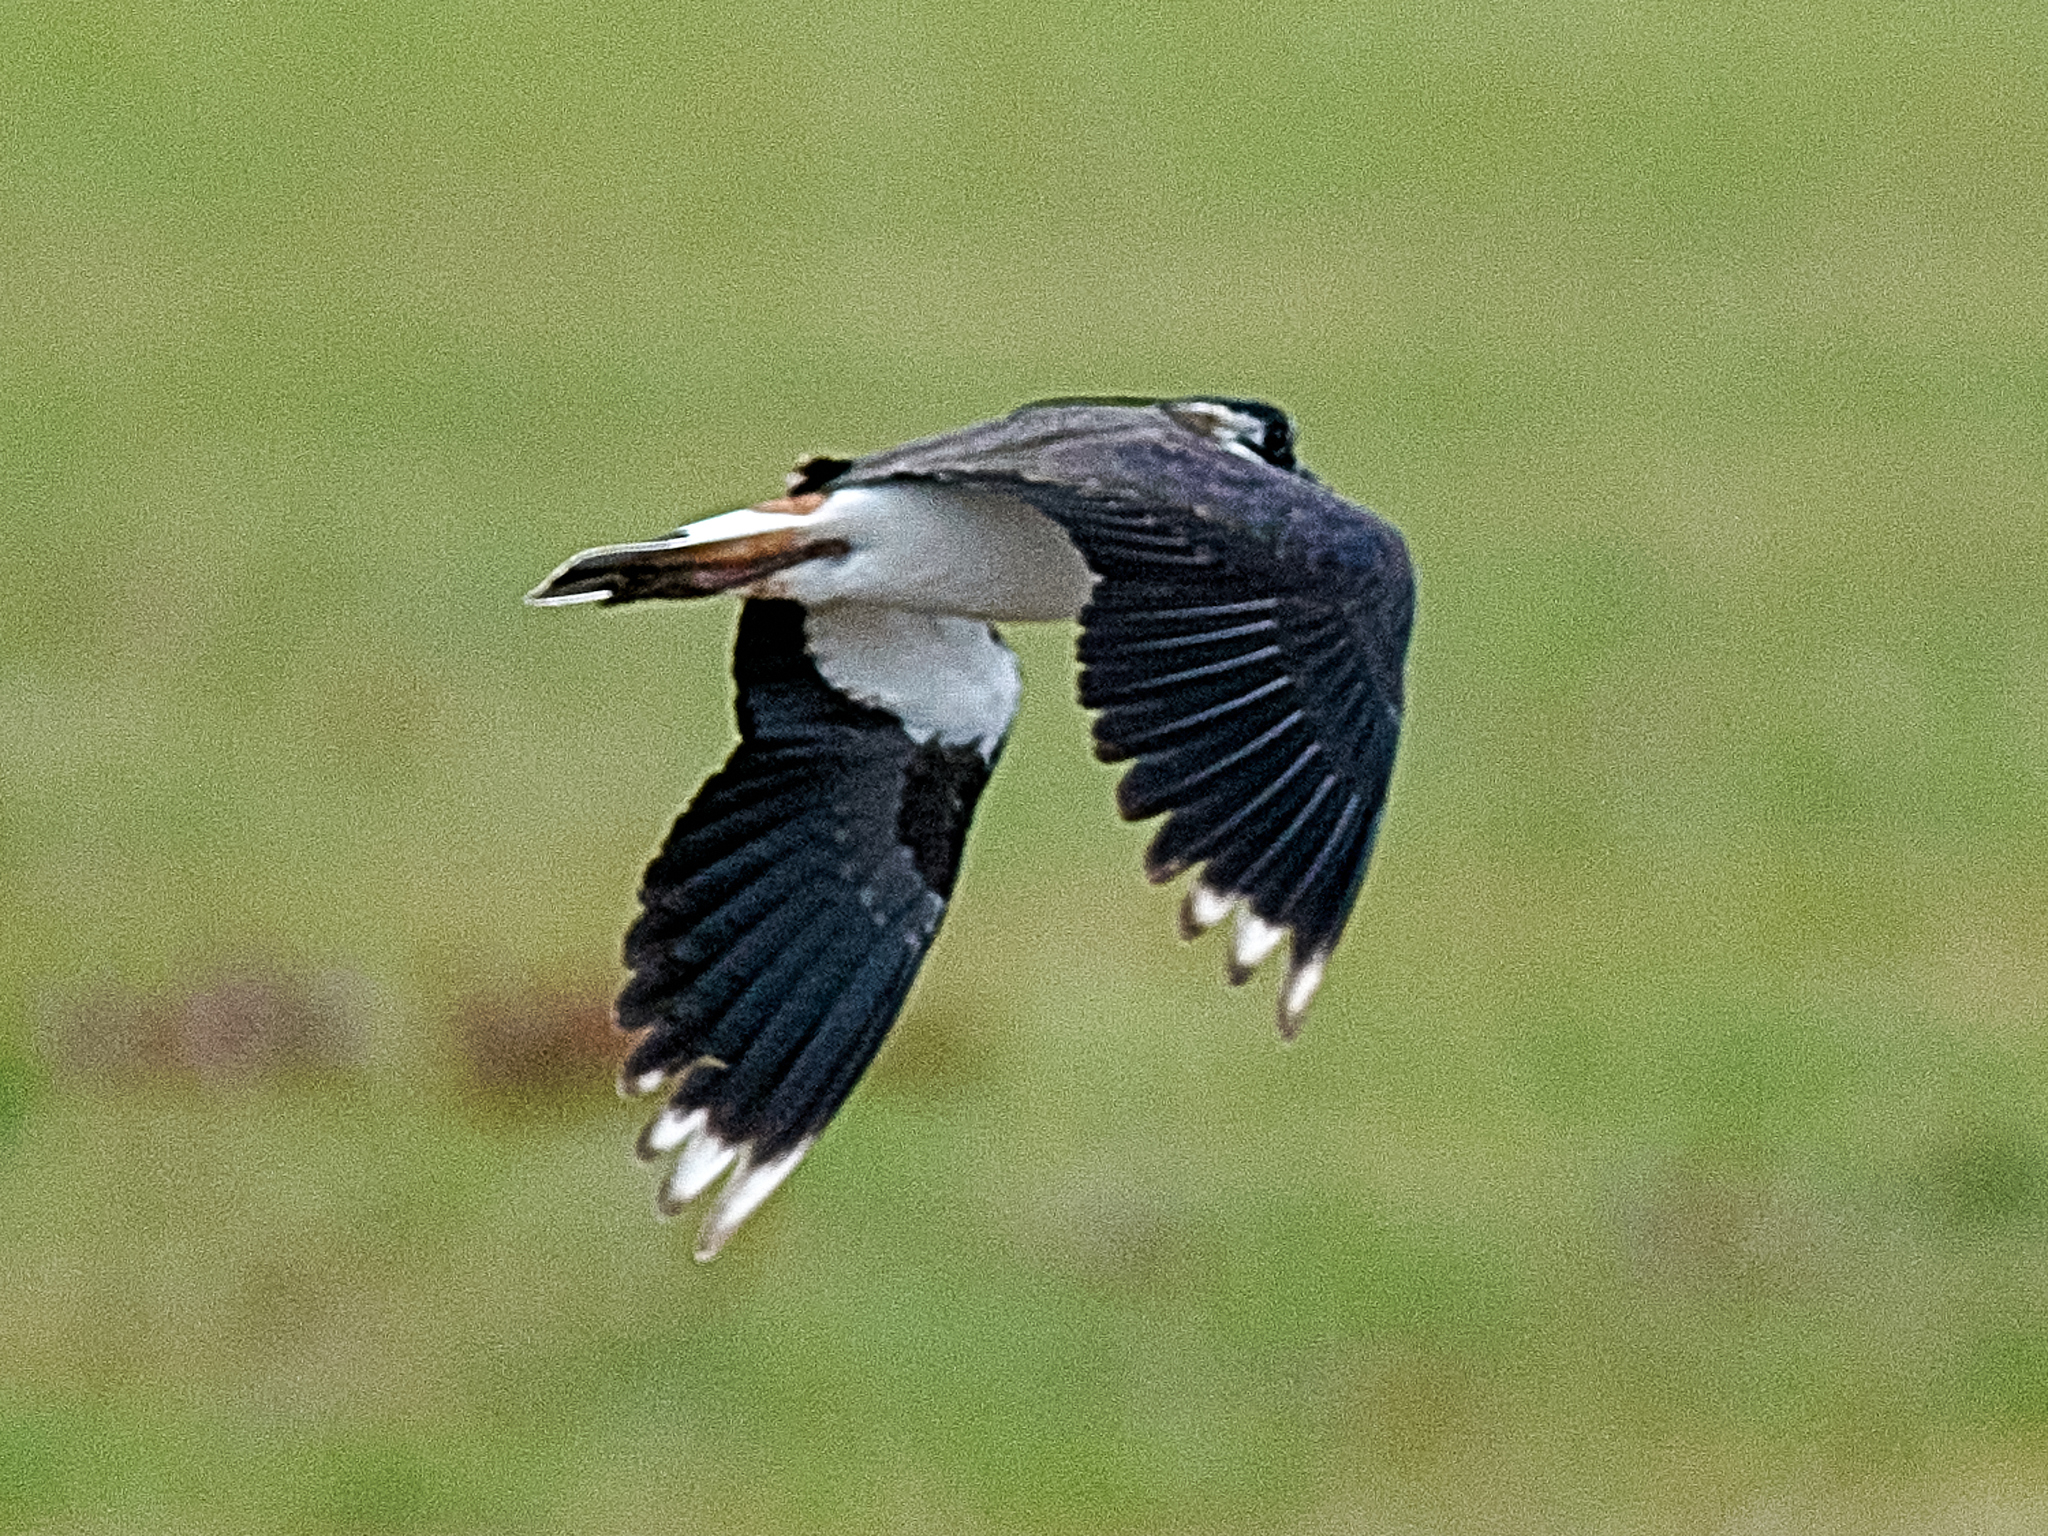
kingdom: Animalia
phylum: Chordata
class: Aves
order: Charadriiformes
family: Charadriidae
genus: Vanellus
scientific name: Vanellus vanellus
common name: Northern lapwing
